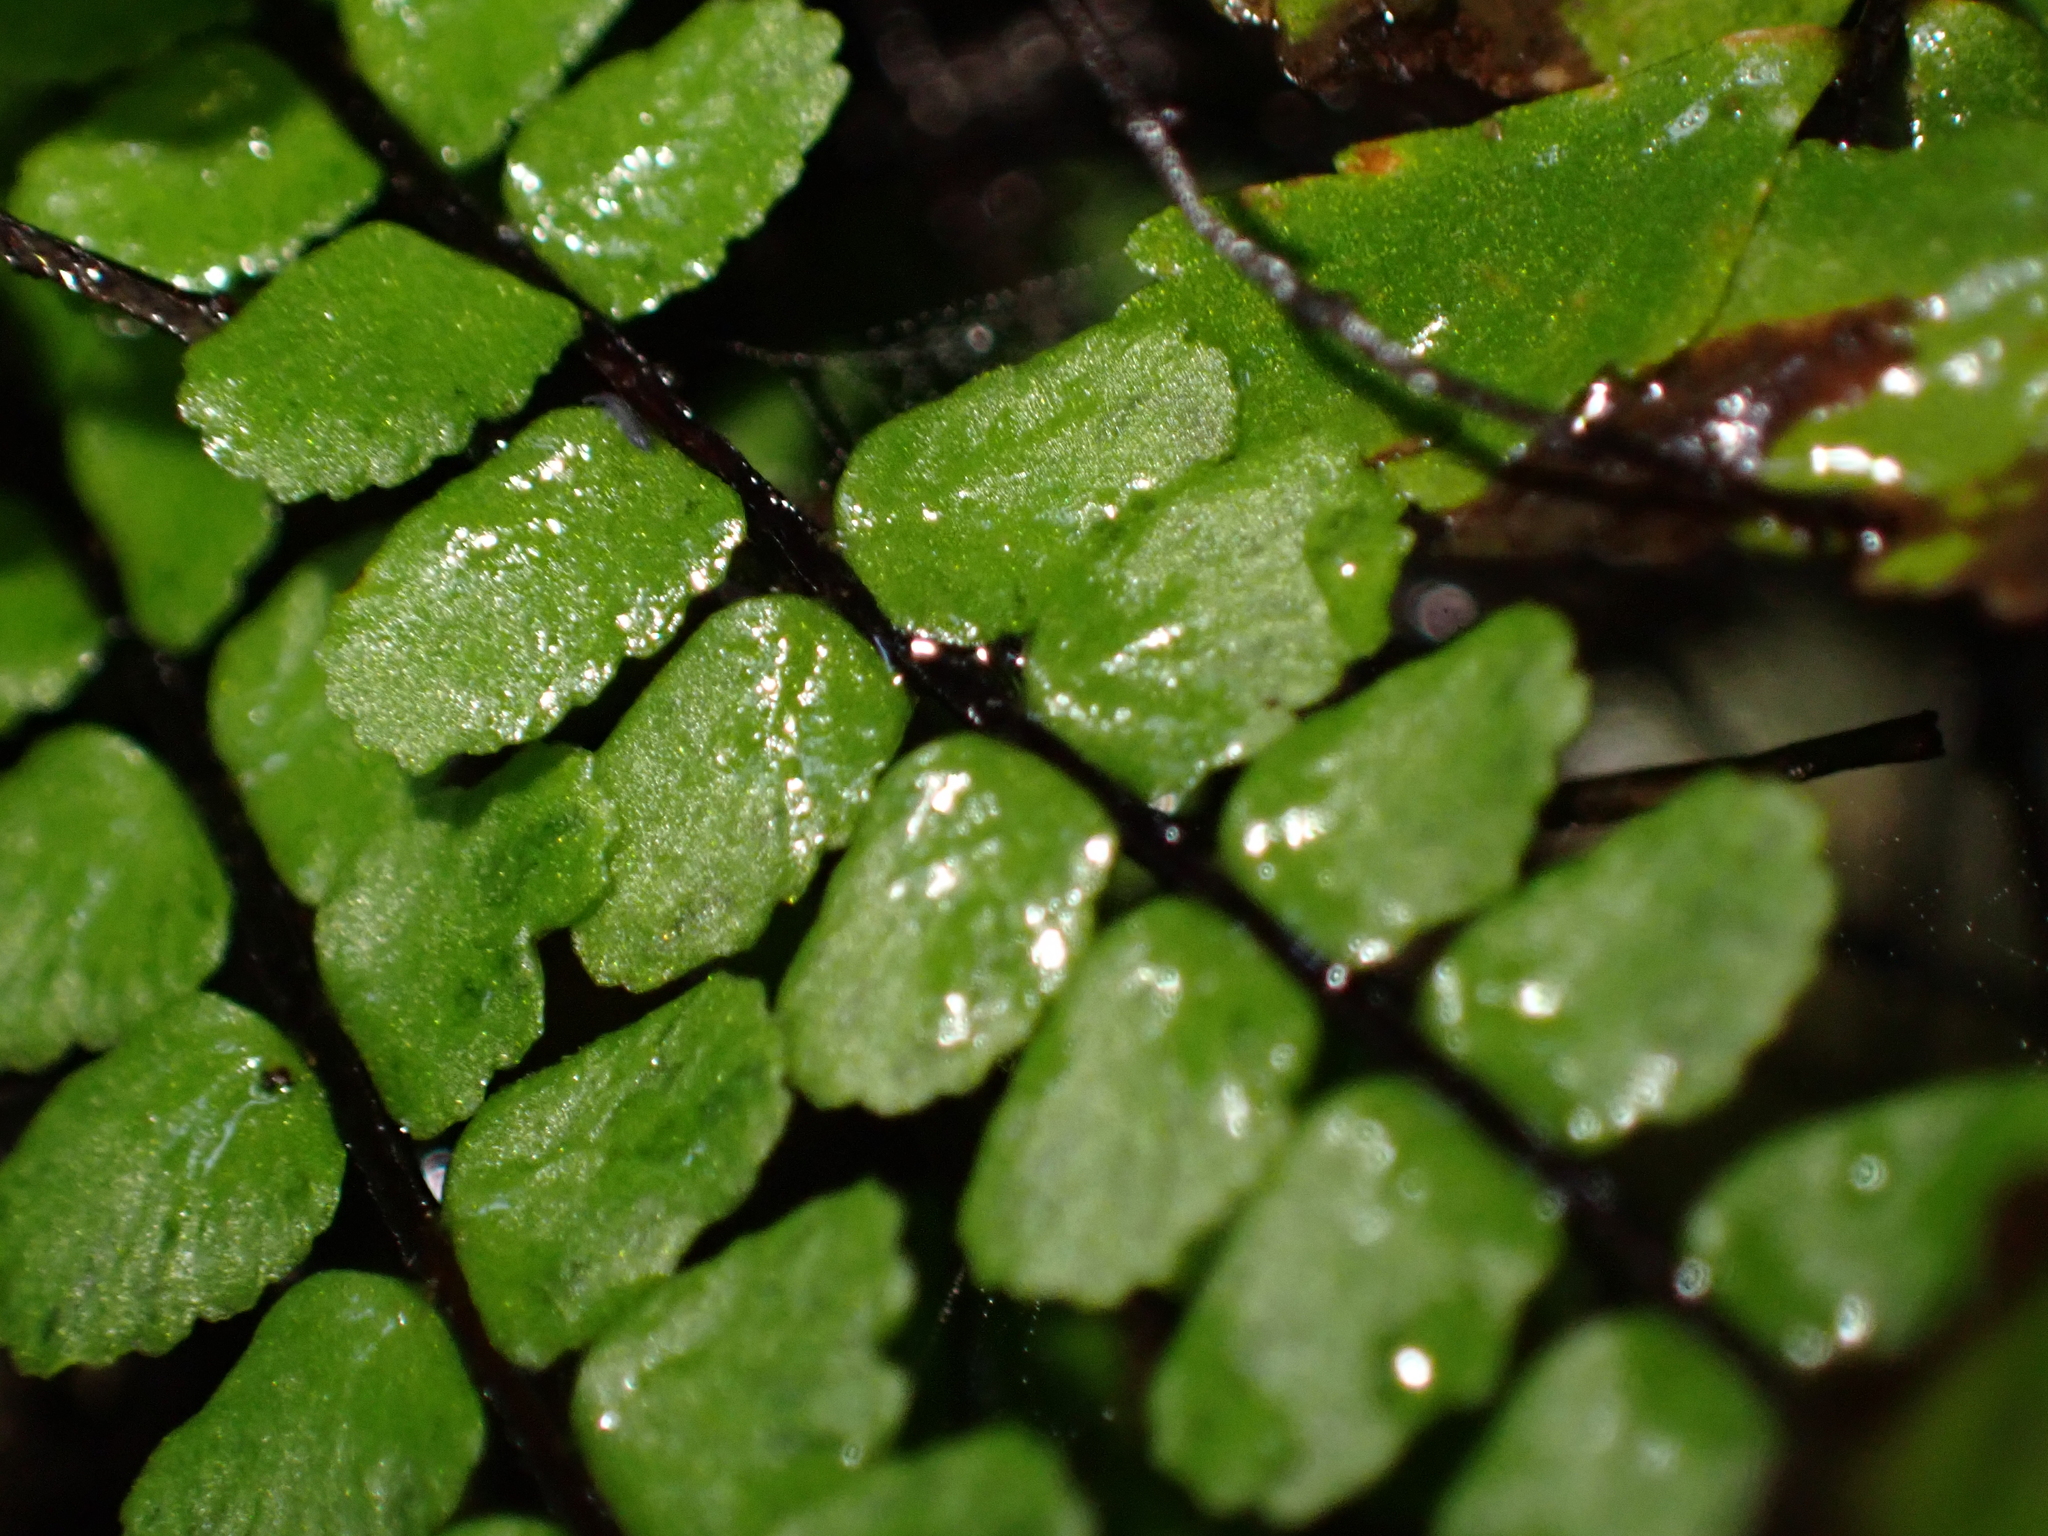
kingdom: Plantae
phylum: Tracheophyta
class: Polypodiopsida
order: Polypodiales
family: Aspleniaceae
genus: Asplenium
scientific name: Asplenium trichomanes
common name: Maidenhair spleenwort
